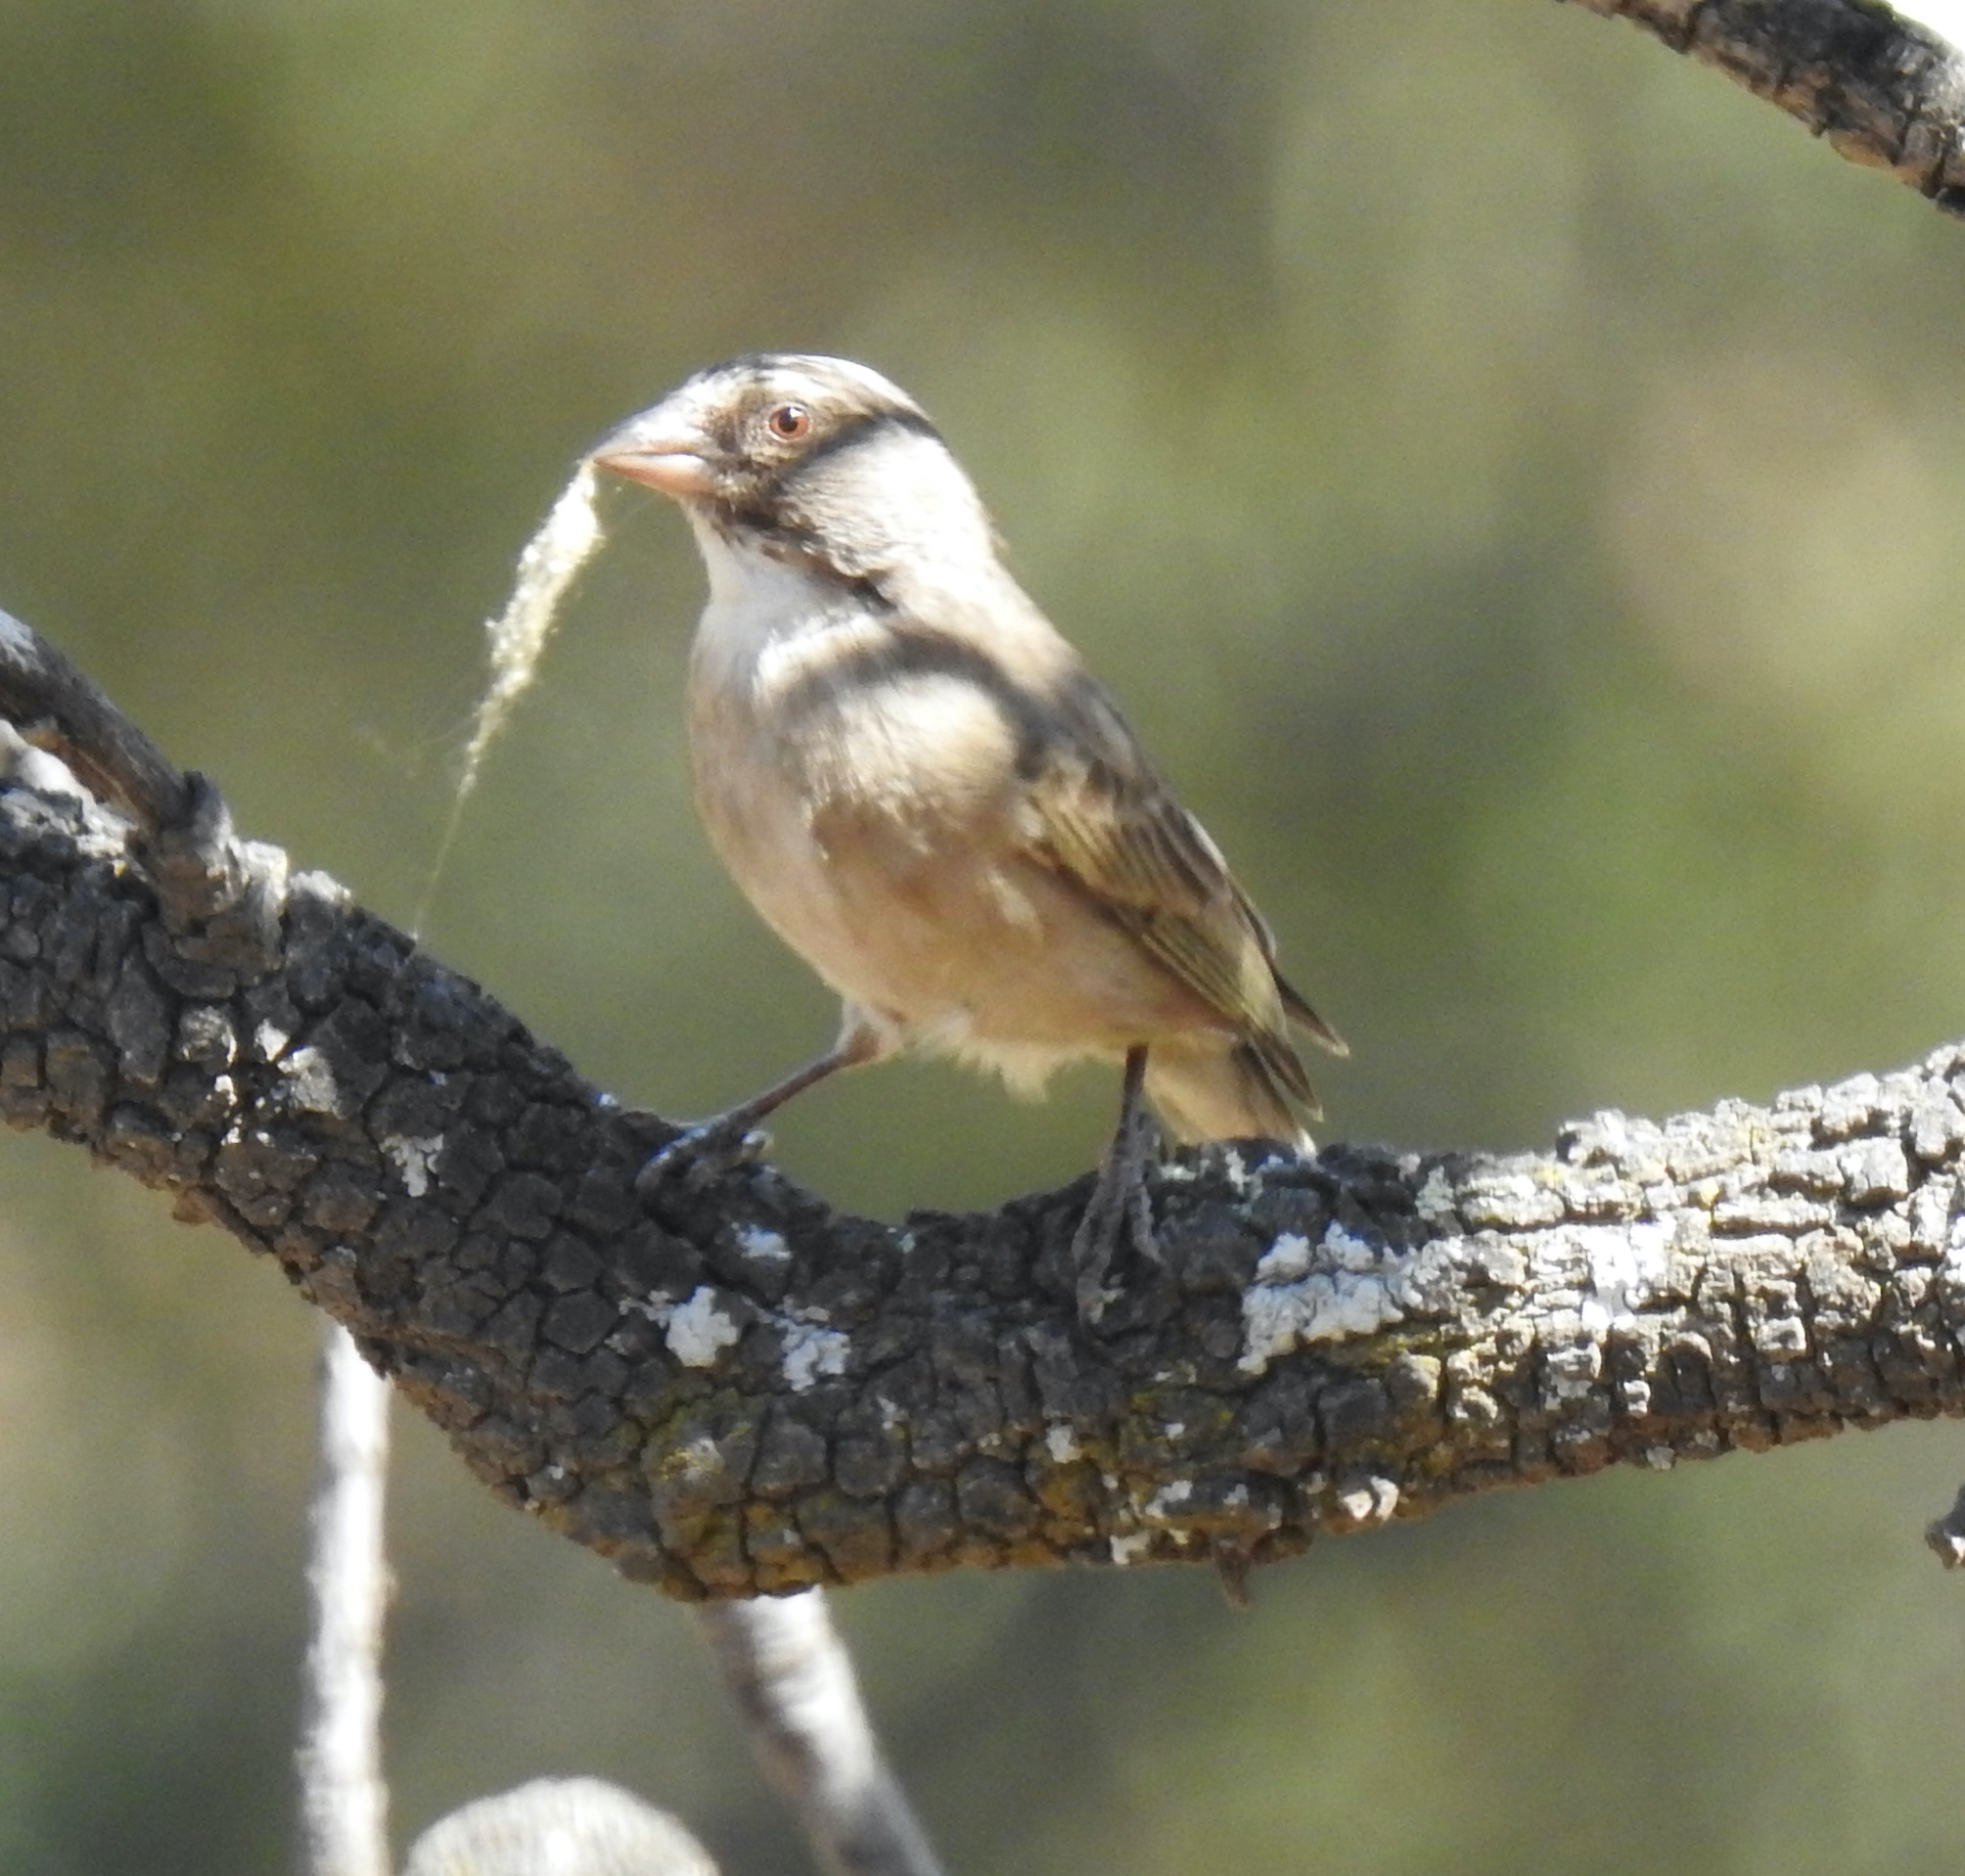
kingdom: Animalia
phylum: Chordata
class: Aves
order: Passeriformes
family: Fringillidae
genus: Crithagra
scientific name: Crithagra gularis
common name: Streaky-headed seedeater
